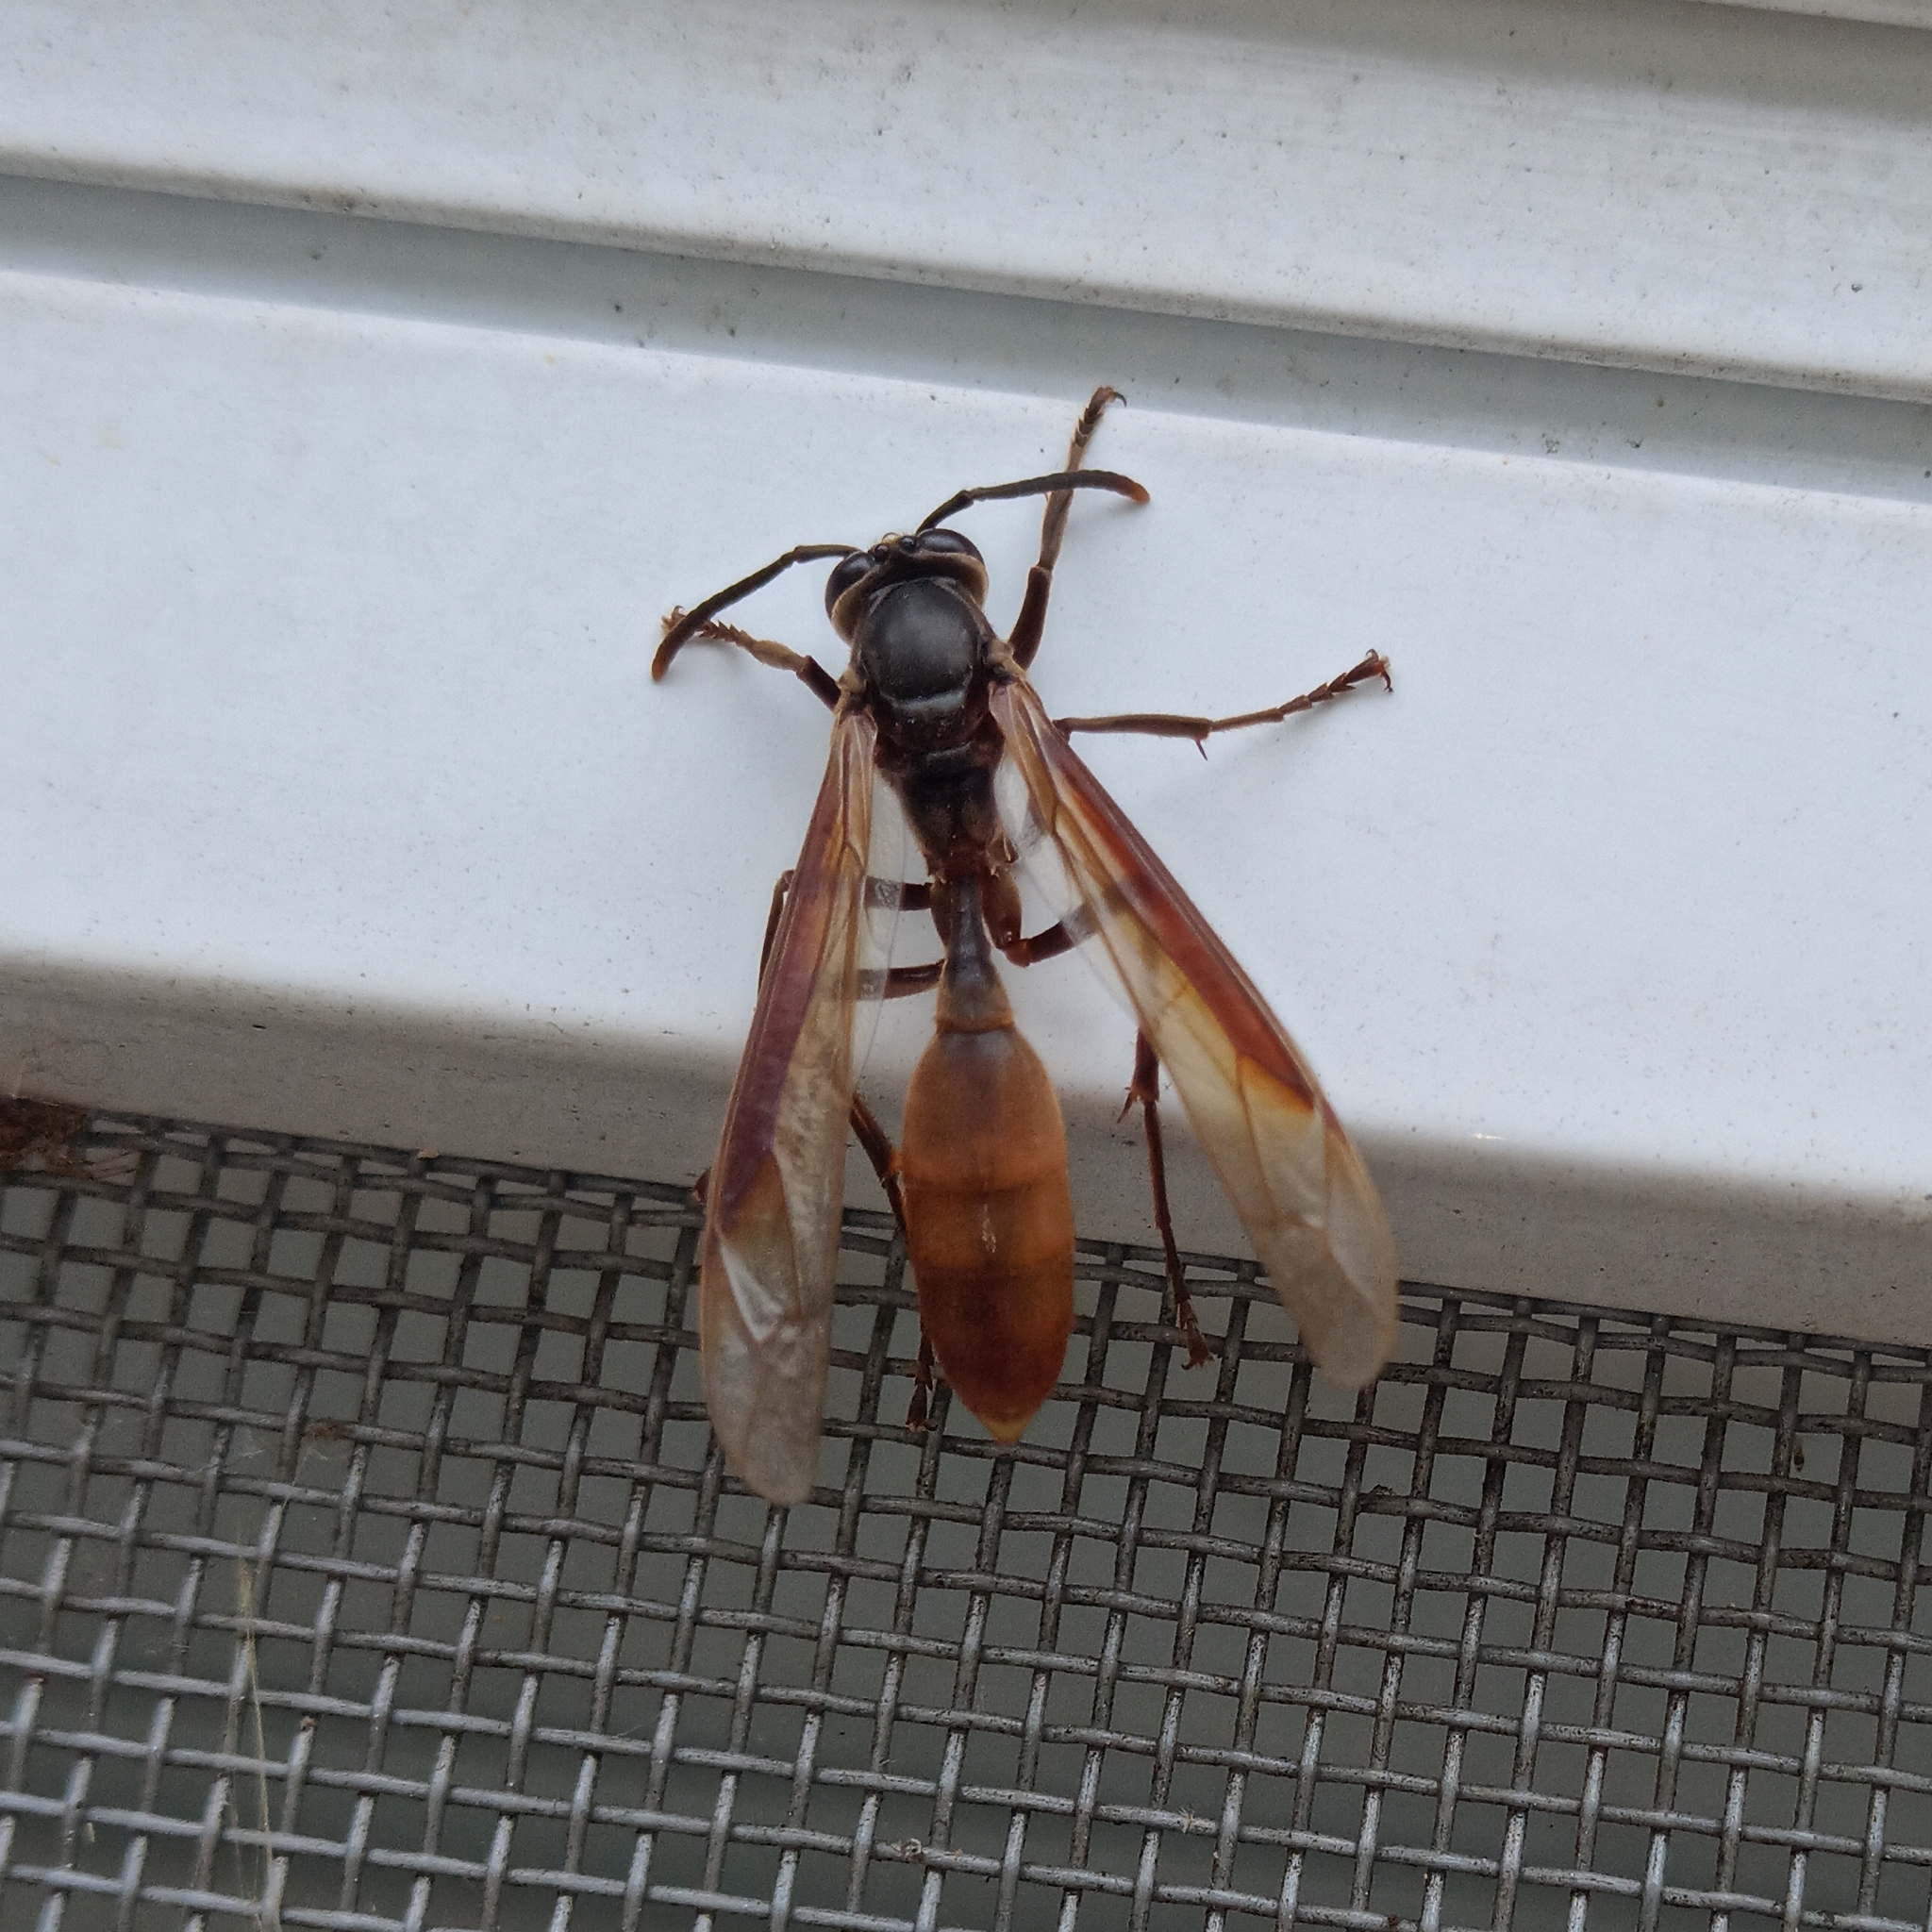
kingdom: Animalia
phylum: Arthropoda
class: Insecta
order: Hymenoptera
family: Vespidae
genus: Apoica
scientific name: Apoica thoracica
